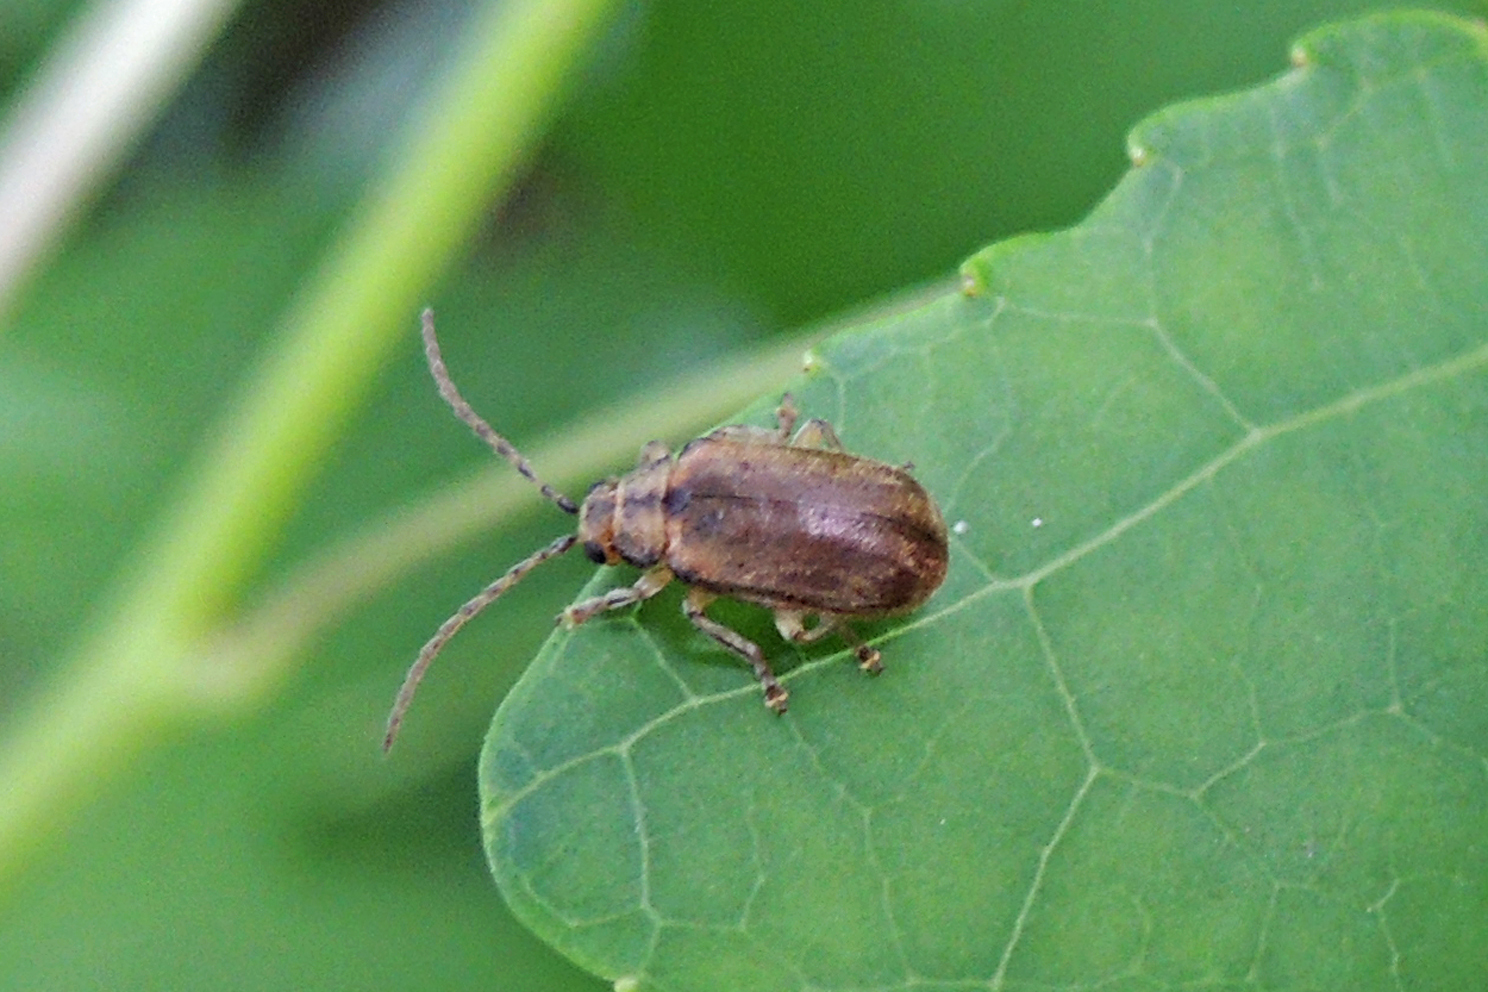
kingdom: Animalia
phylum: Arthropoda
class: Insecta
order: Coleoptera
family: Chrysomelidae
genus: Pyrrhalta
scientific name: Pyrrhalta viburni
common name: Guelder-rose leaf beetle
